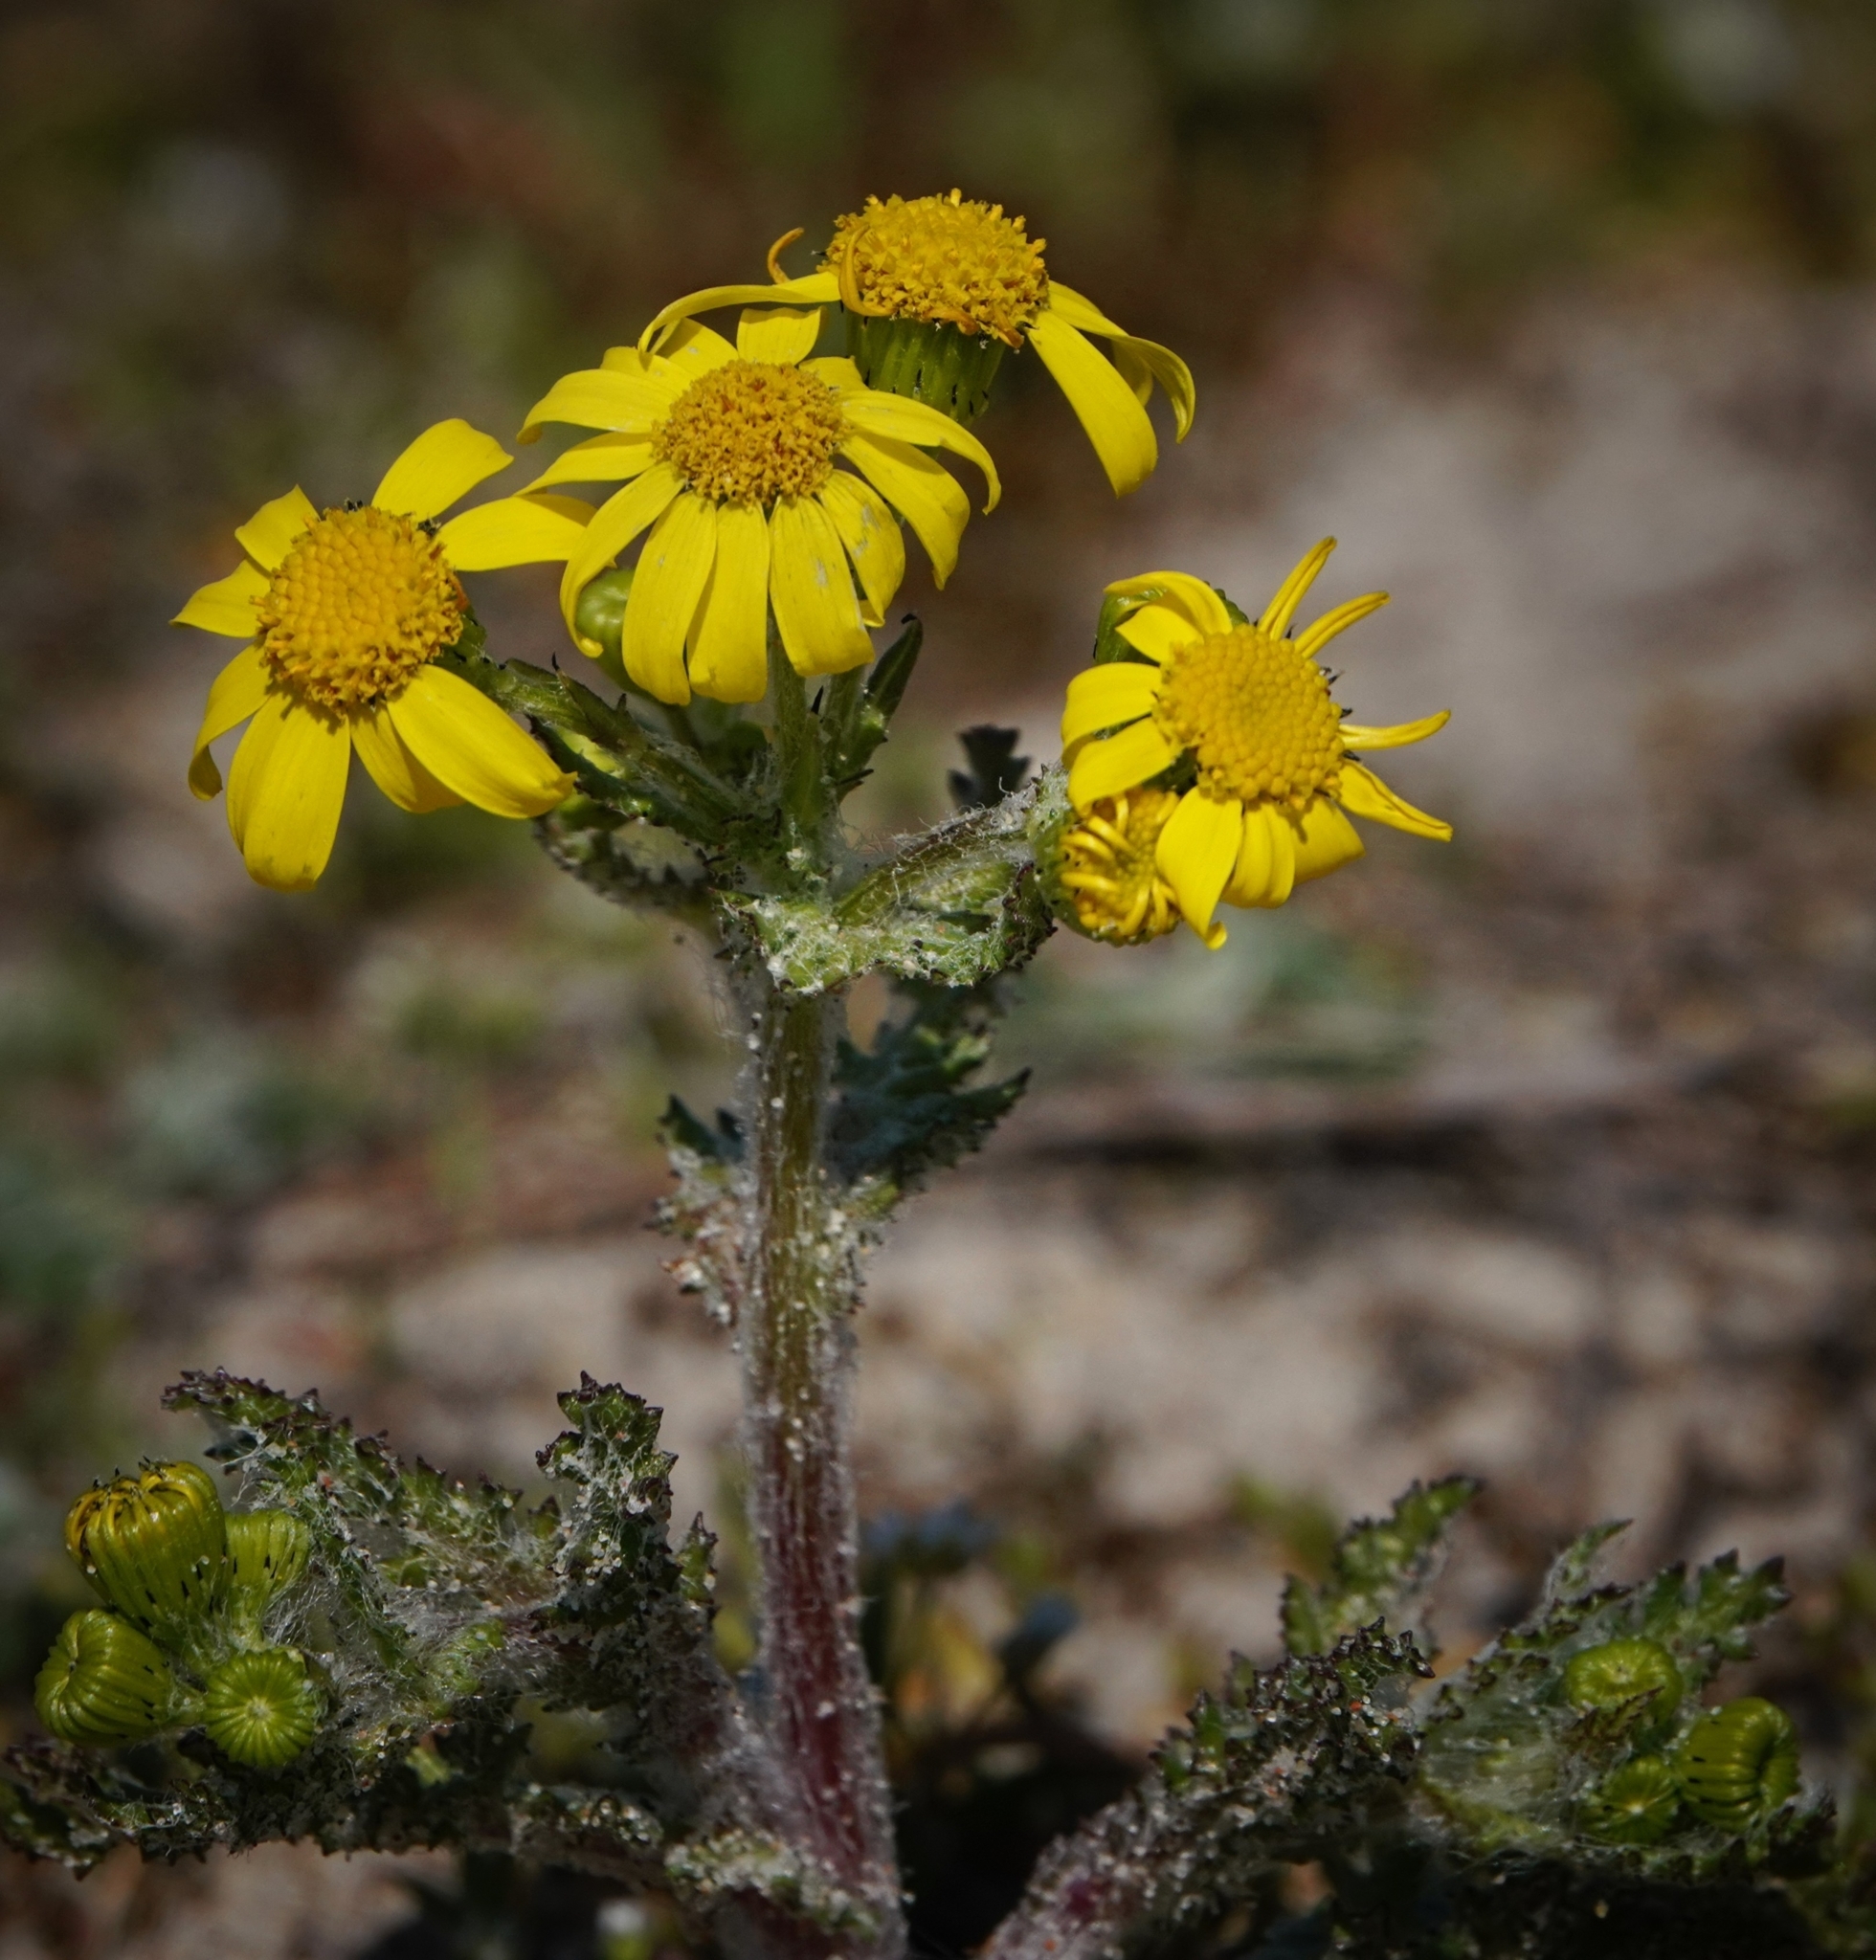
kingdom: Plantae
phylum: Tracheophyta
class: Magnoliopsida
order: Asterales
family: Asteraceae
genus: Senecio
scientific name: Senecio vernalis
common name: Eastern groundsel
